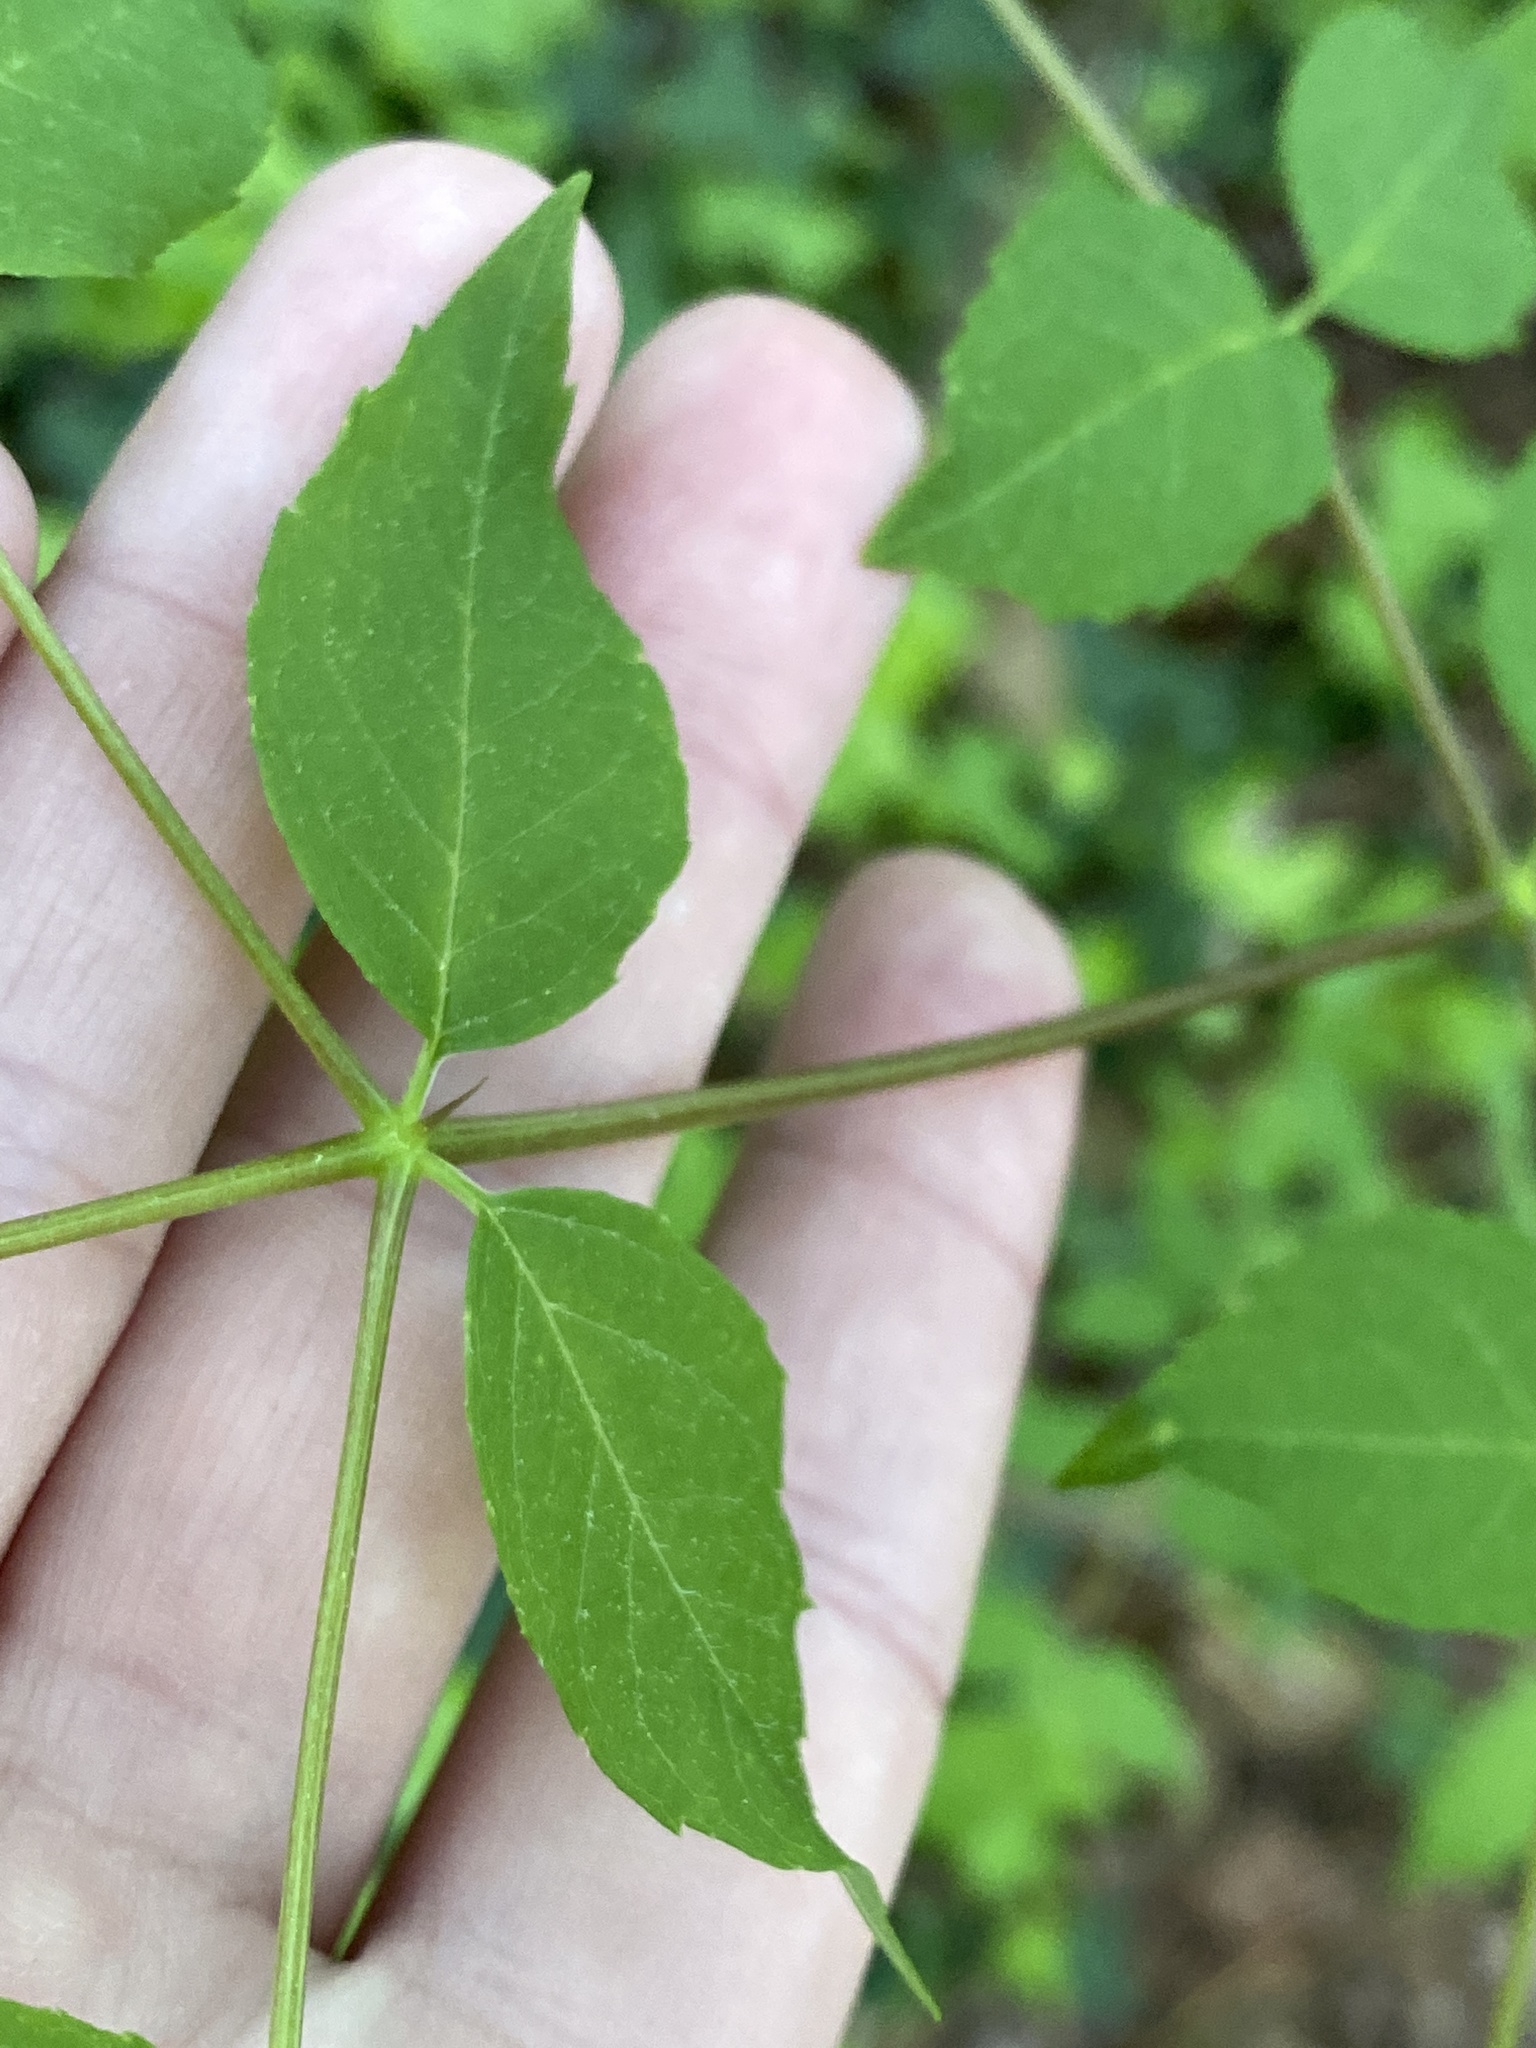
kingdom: Plantae
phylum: Tracheophyta
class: Magnoliopsida
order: Apiales
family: Araliaceae
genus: Aralia
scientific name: Aralia spinosa
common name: Hercules'-club
